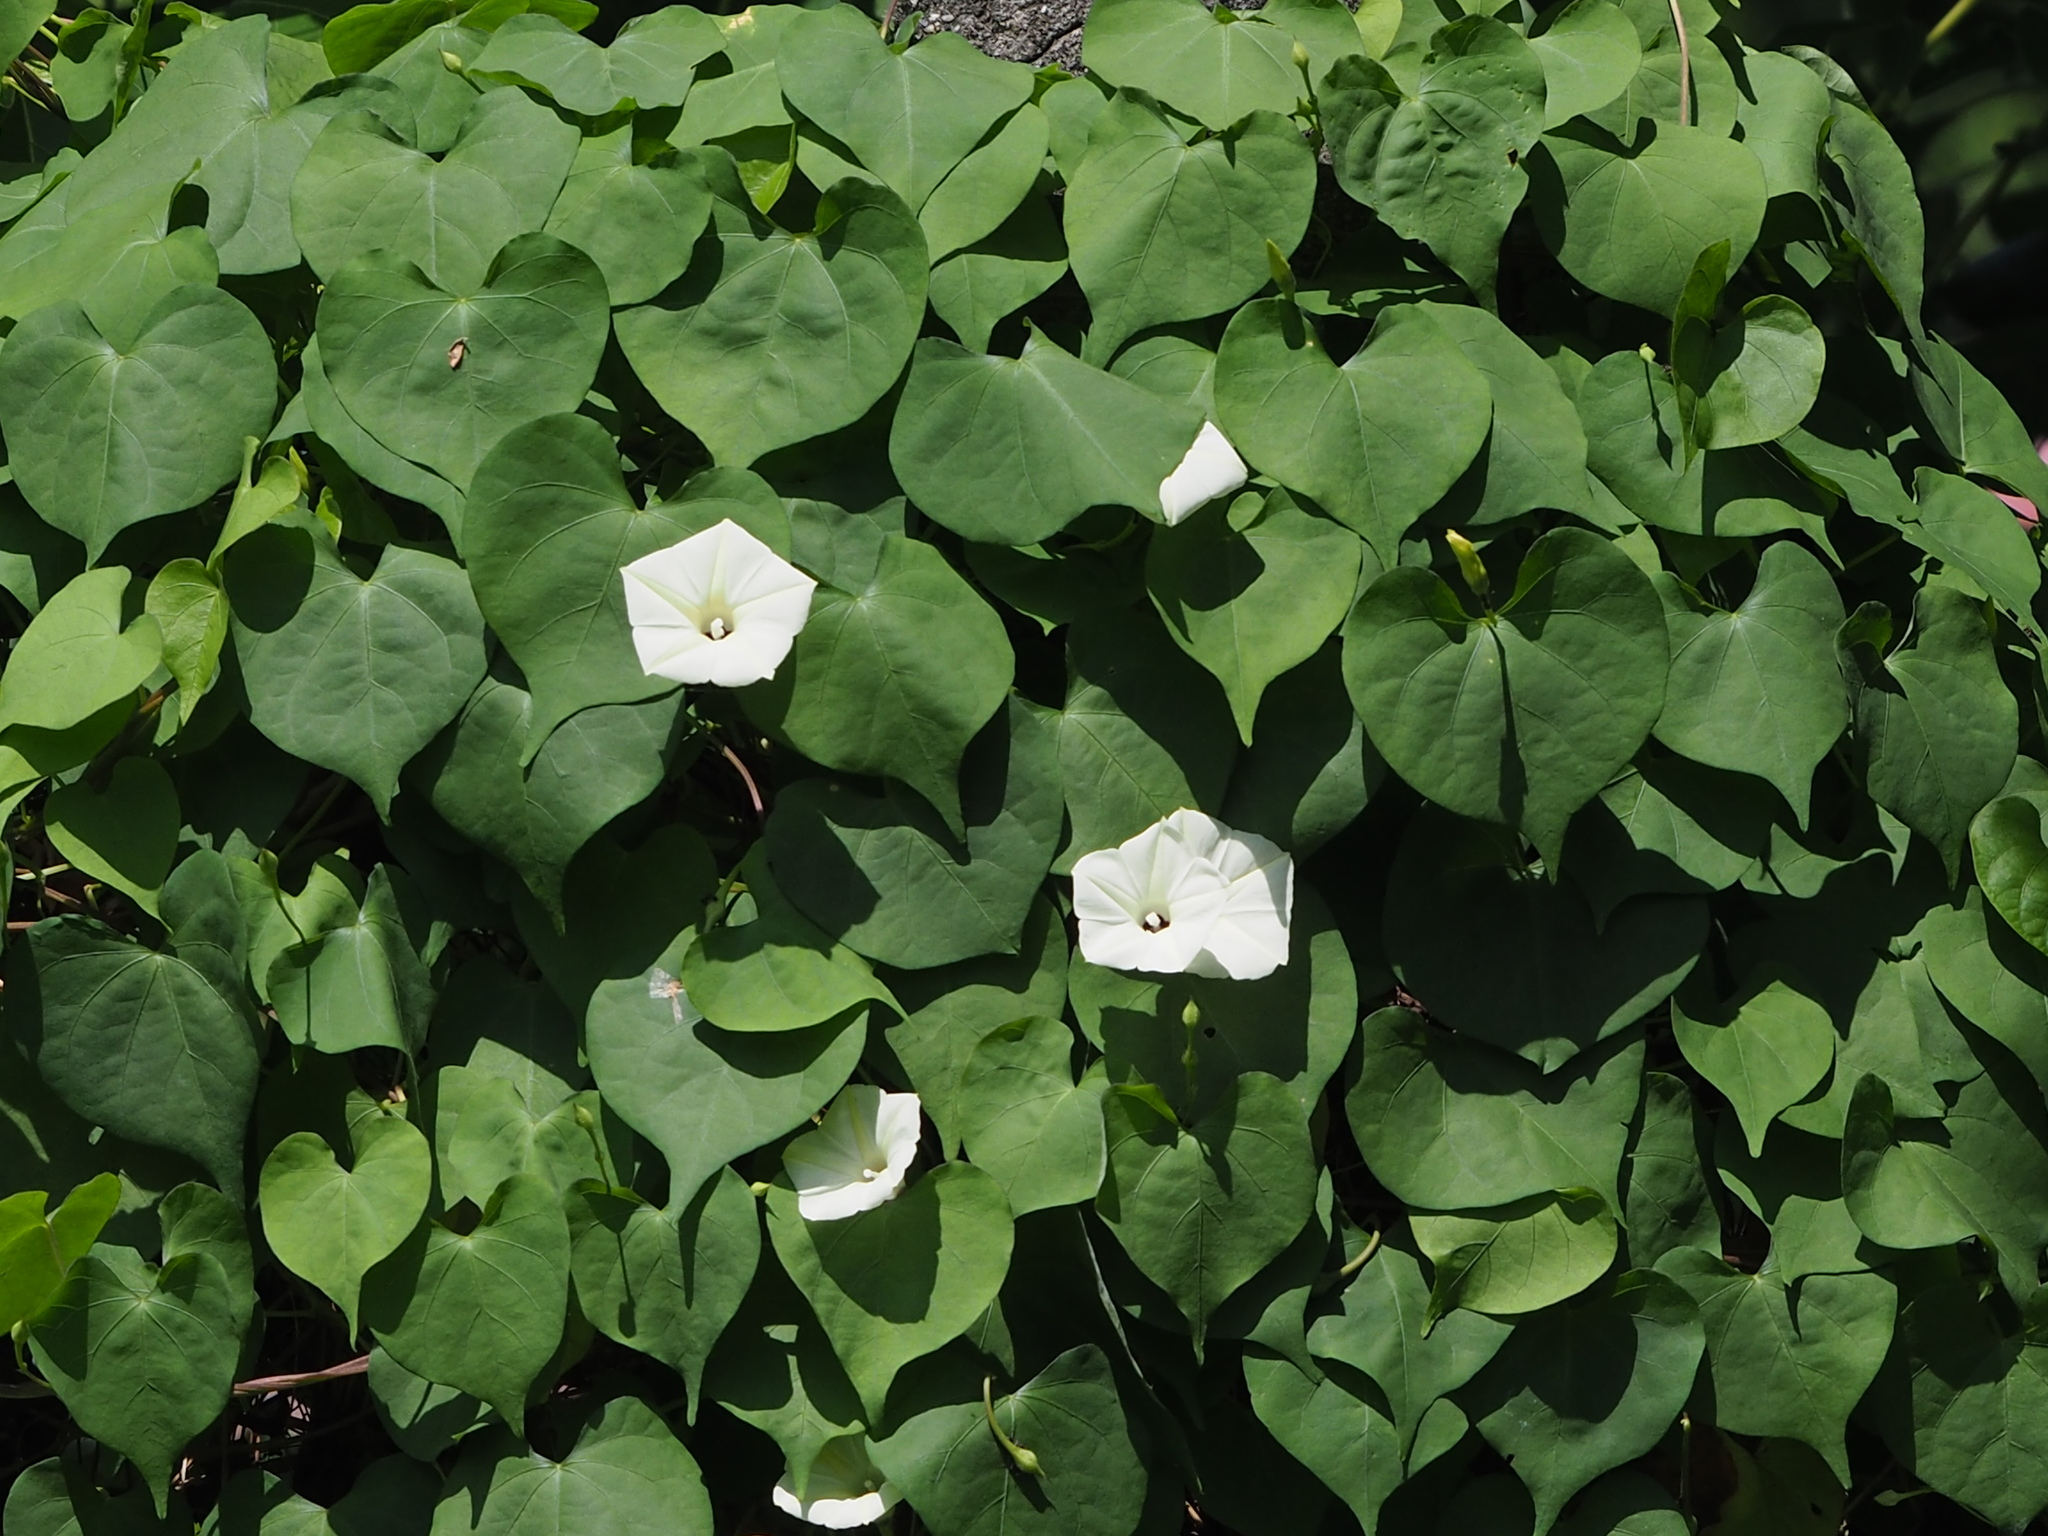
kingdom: Plantae
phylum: Tracheophyta
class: Magnoliopsida
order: Solanales
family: Convolvulaceae
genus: Ipomoea
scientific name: Ipomoea obscura
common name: Obscure morning-glory
